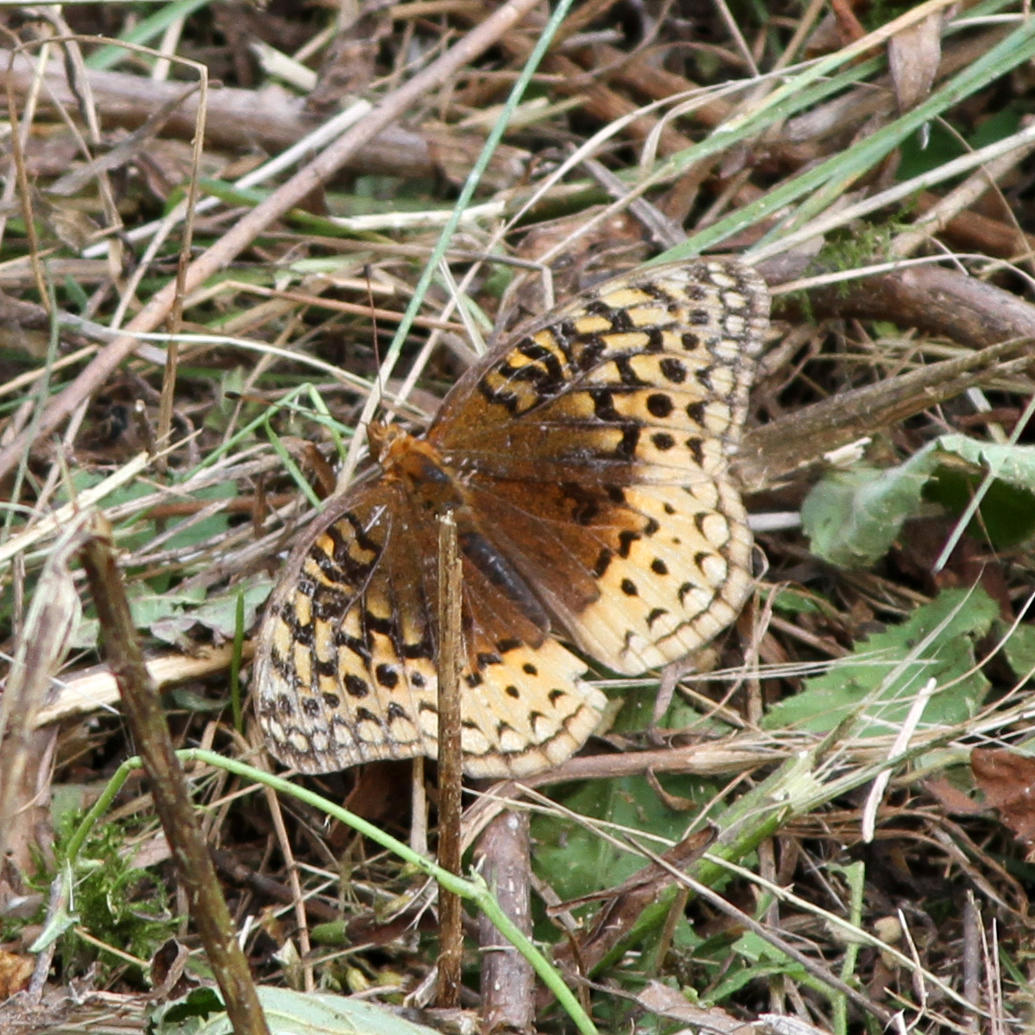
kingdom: Animalia
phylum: Arthropoda
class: Insecta
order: Lepidoptera
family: Nymphalidae
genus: Speyeria
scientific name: Speyeria cybele
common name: Great spangled fritillary
